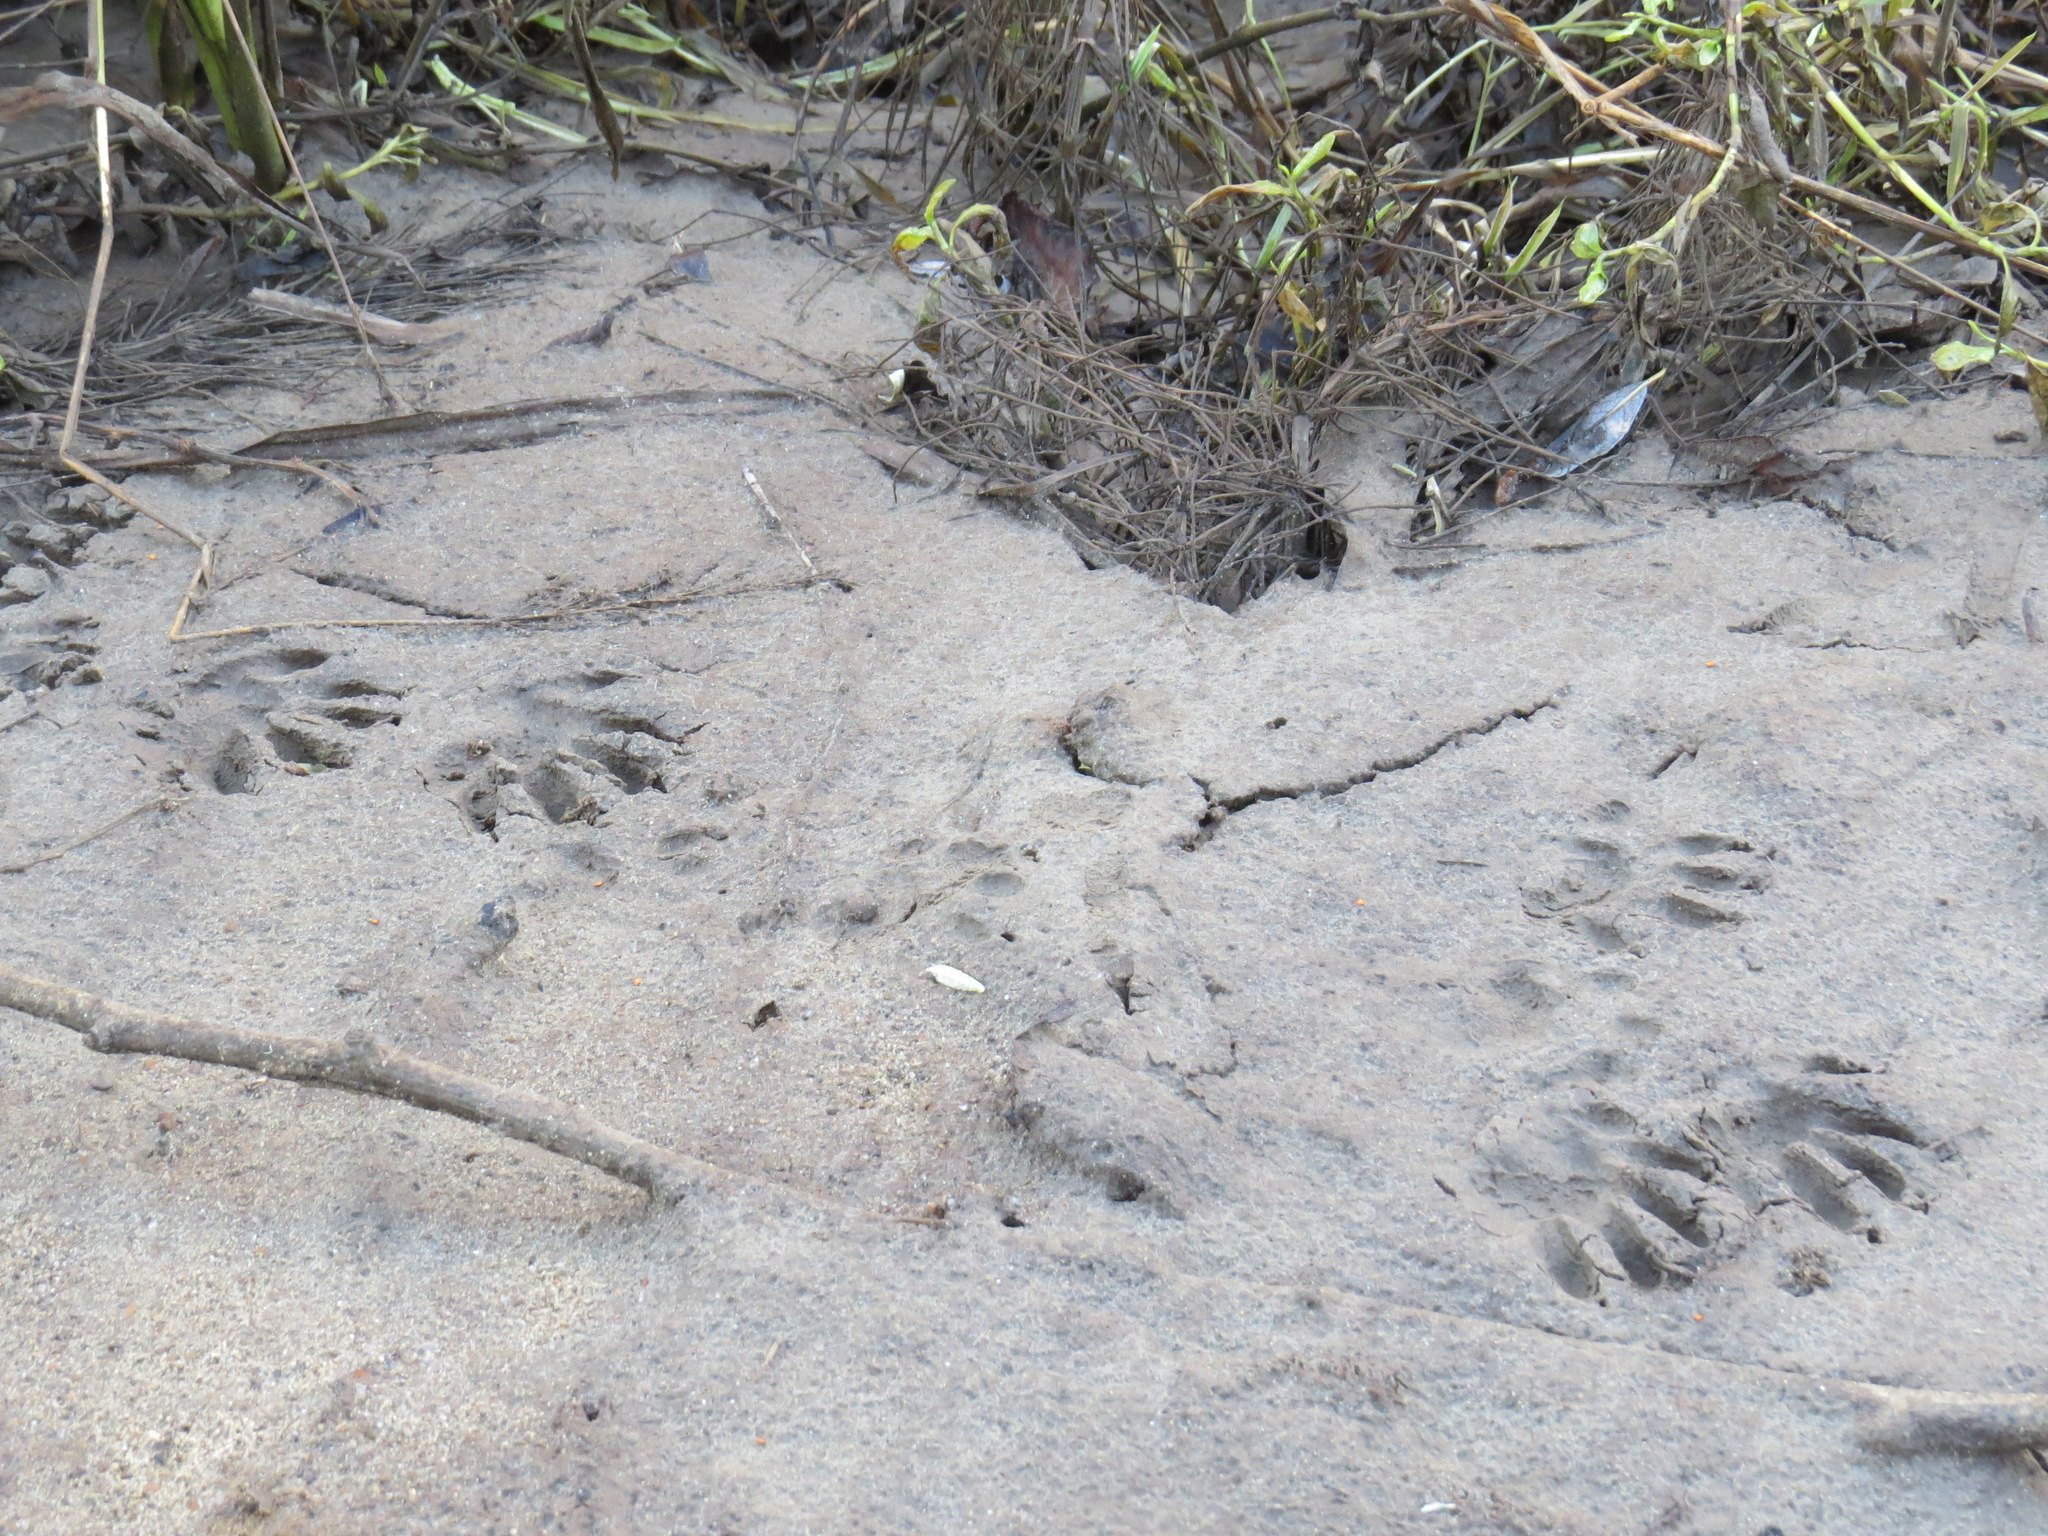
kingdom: Animalia
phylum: Chordata
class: Mammalia
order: Carnivora
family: Procyonidae
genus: Procyon
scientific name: Procyon lotor
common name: Raccoon
